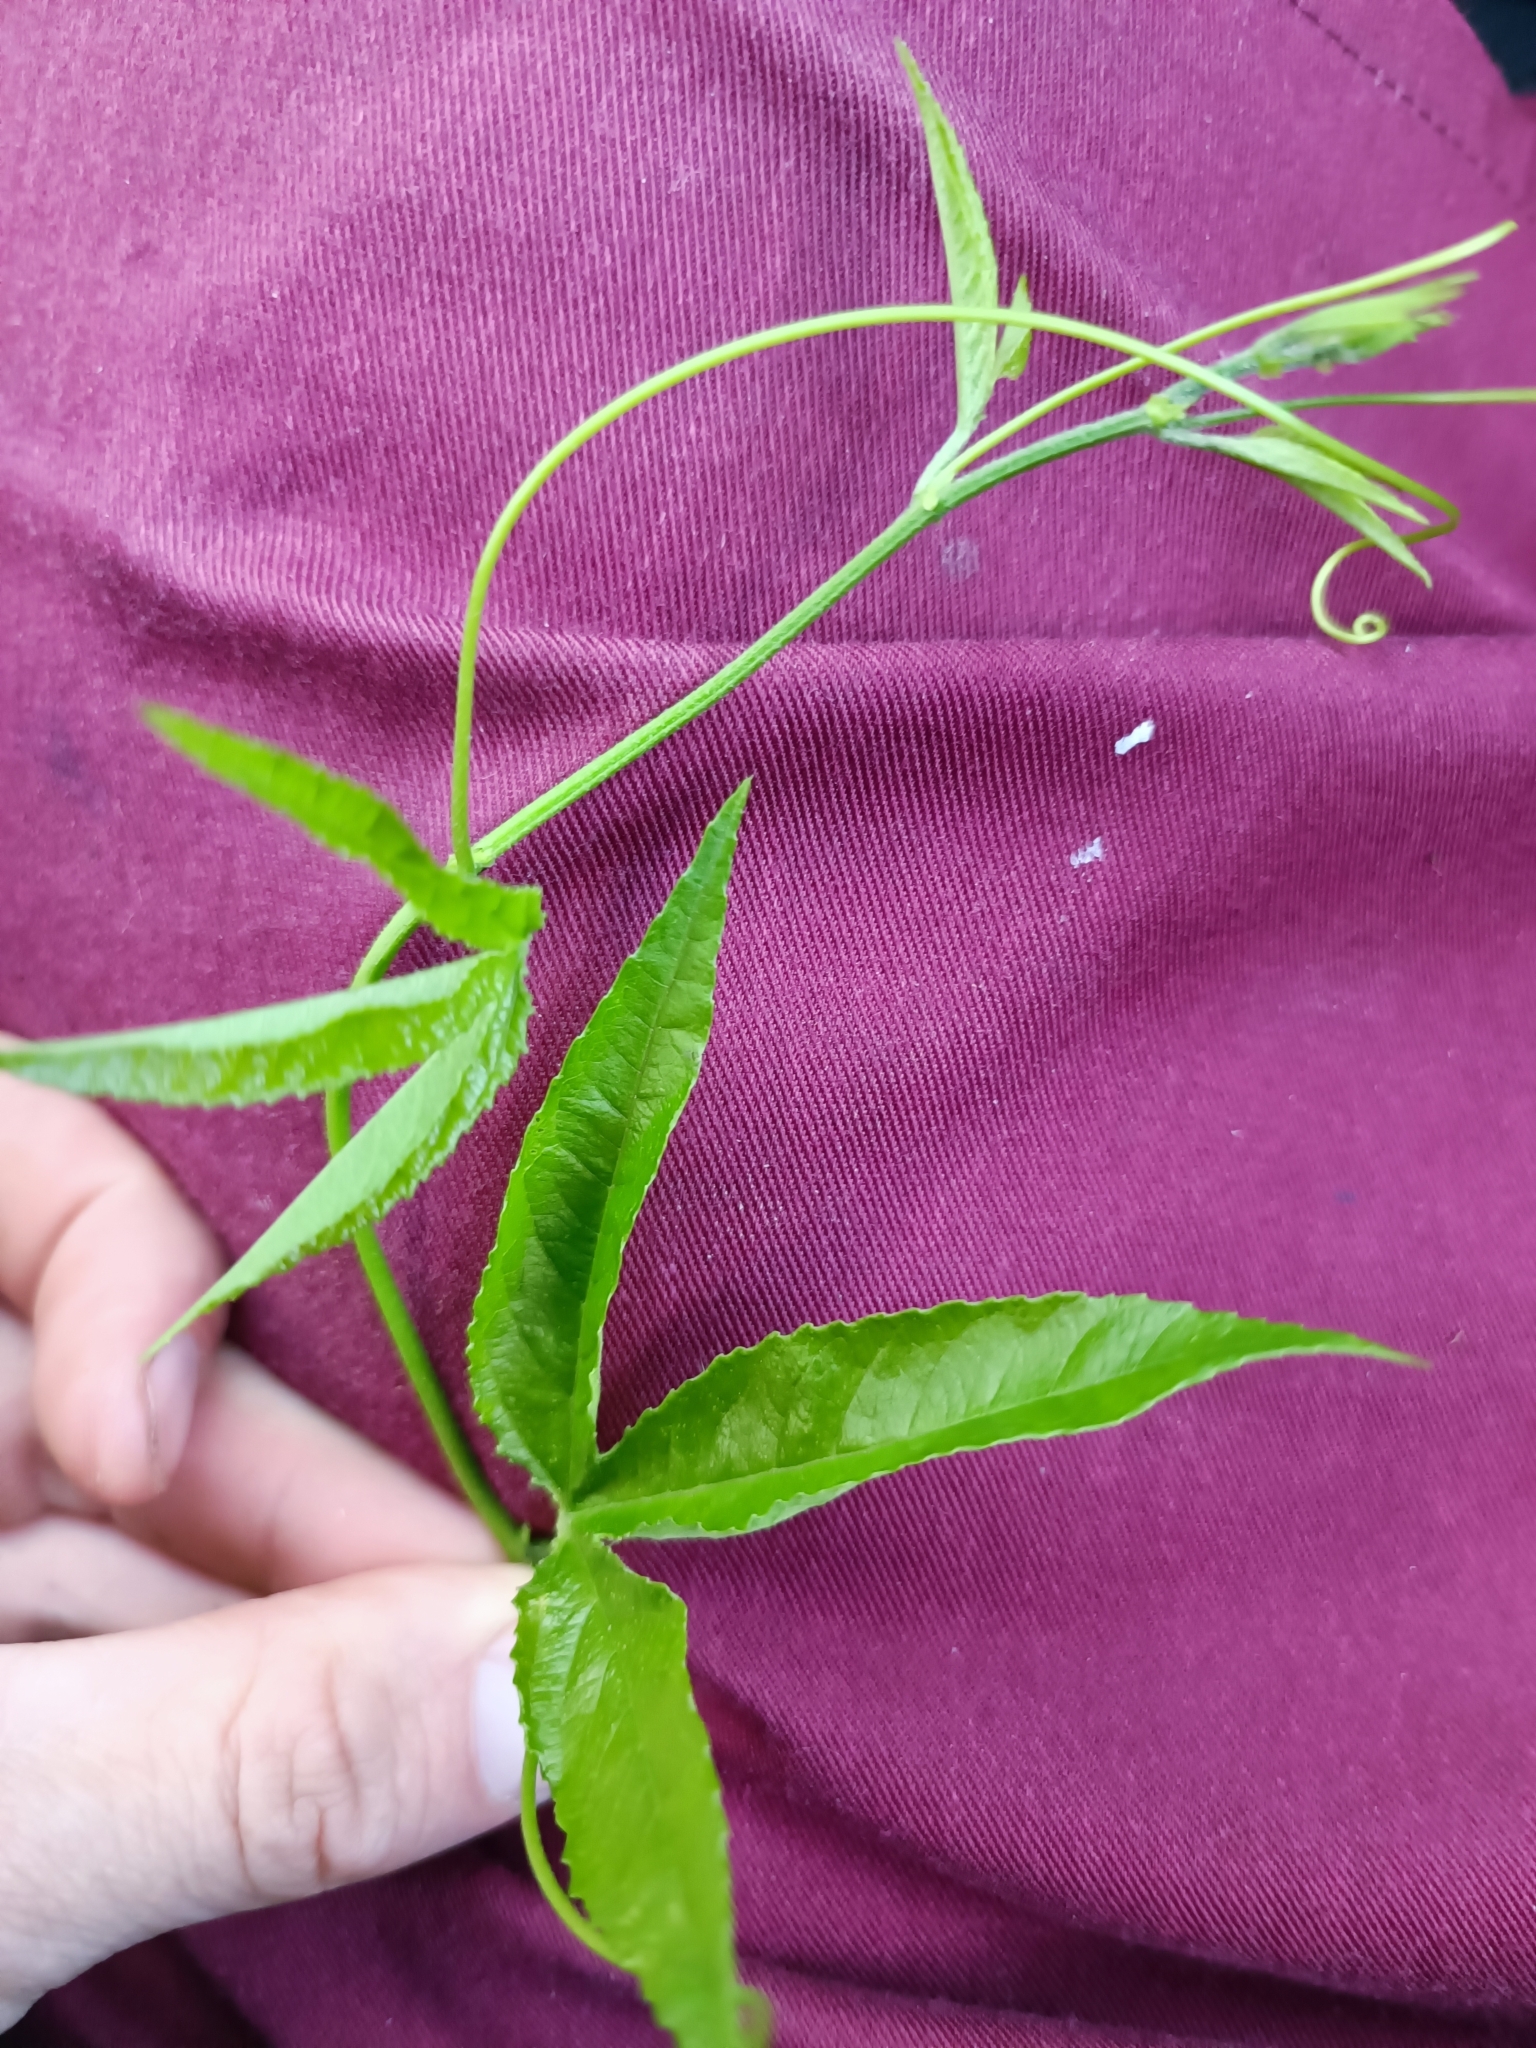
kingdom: Plantae
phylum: Tracheophyta
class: Magnoliopsida
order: Malpighiales
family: Passifloraceae
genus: Passiflora
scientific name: Passiflora tarminiana
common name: Banana poka
